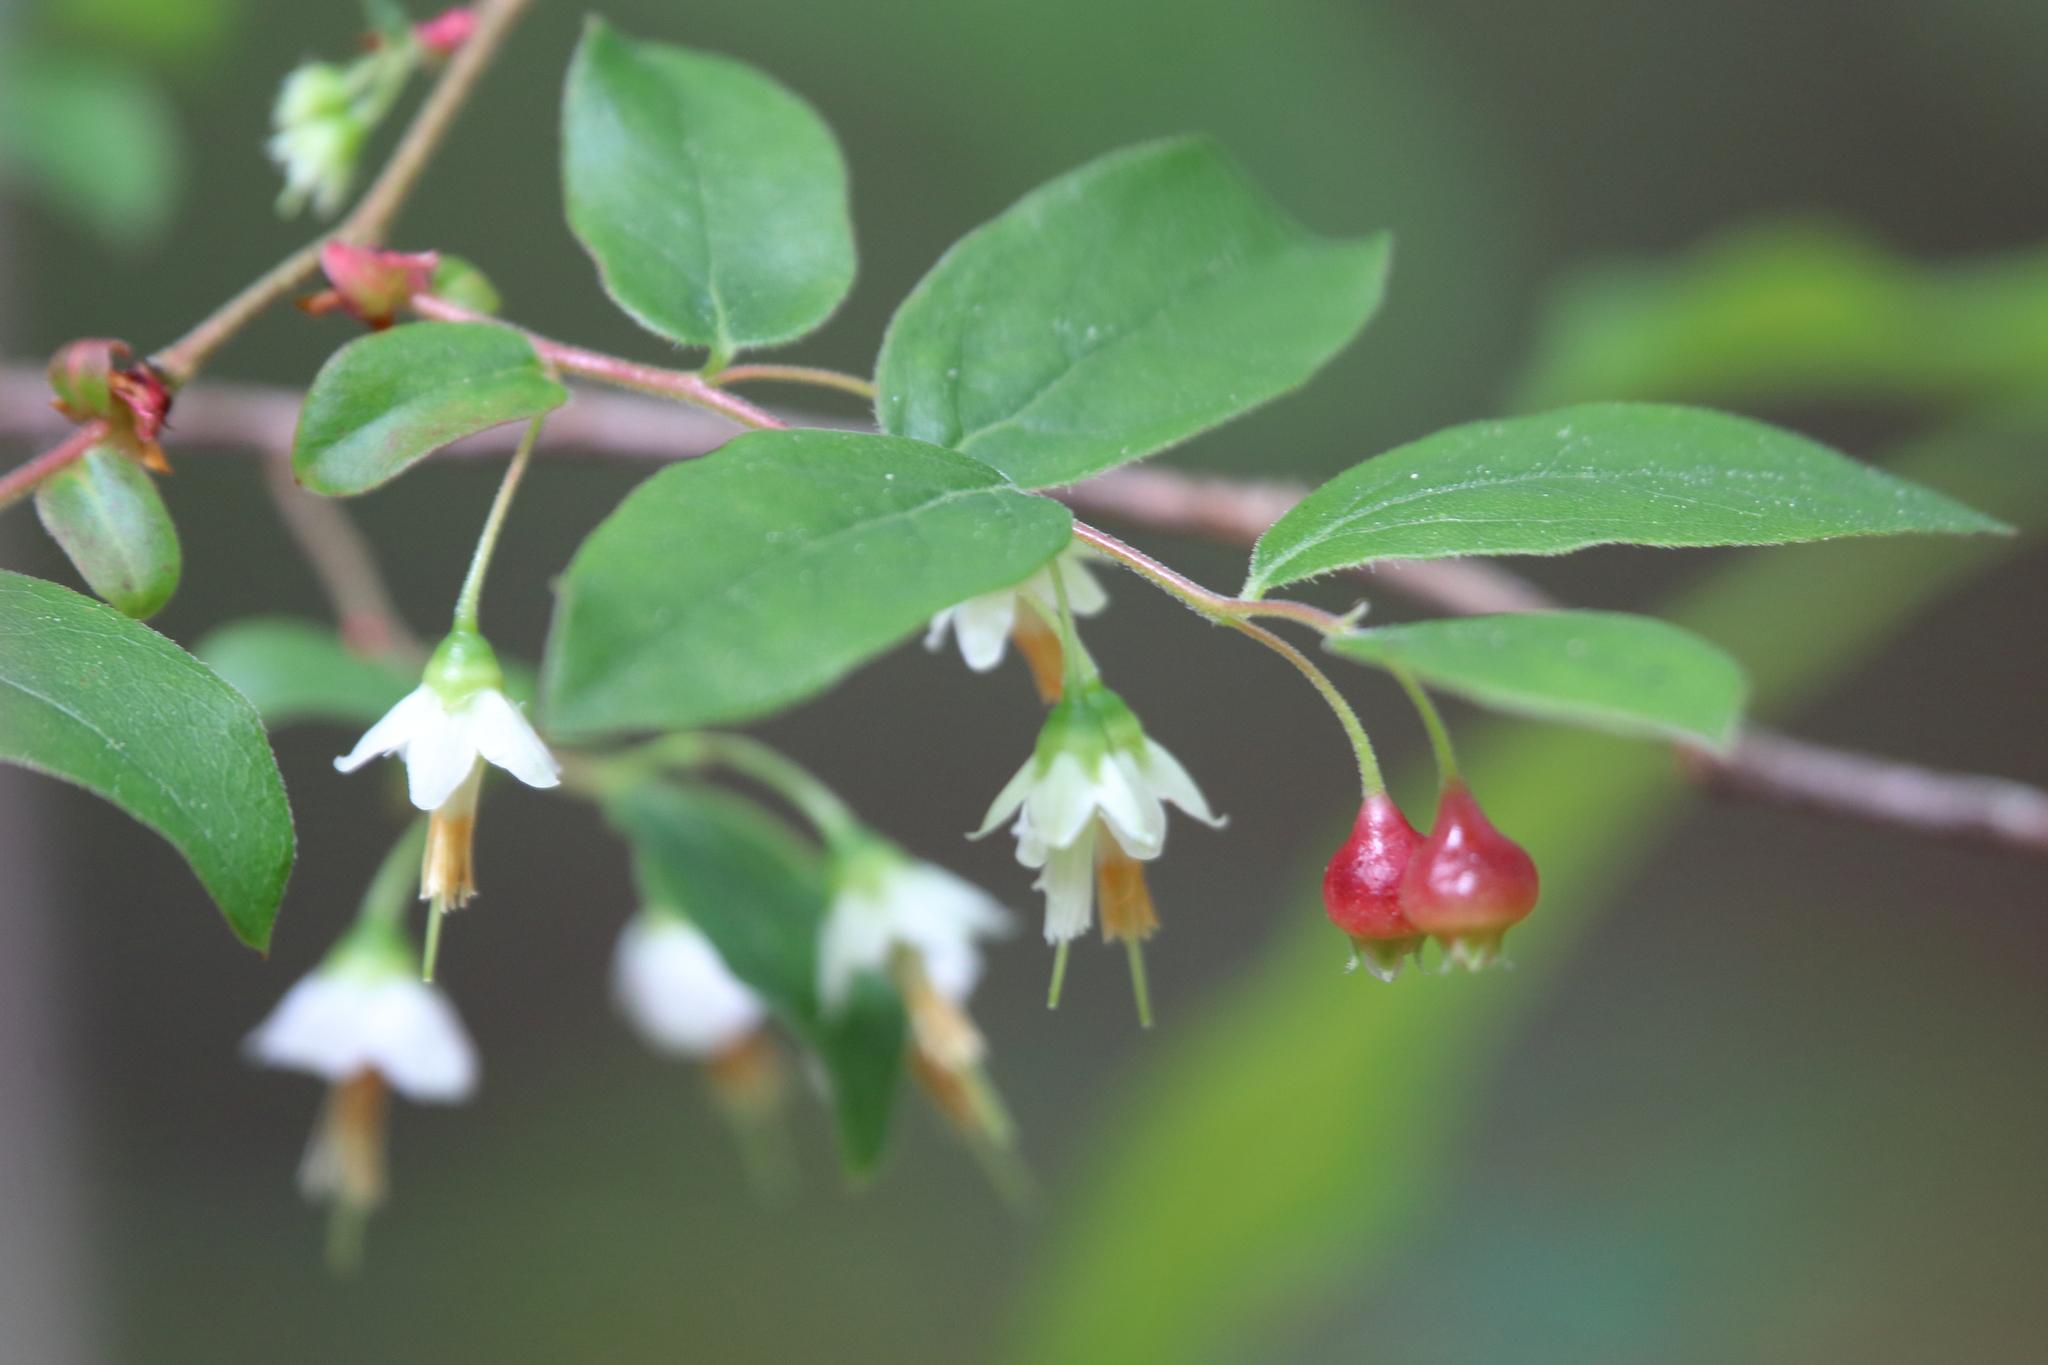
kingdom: Plantae
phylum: Tracheophyta
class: Magnoliopsida
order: Ericales
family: Ericaceae
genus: Vaccinium
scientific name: Vaccinium stamineum
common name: Deerberry
